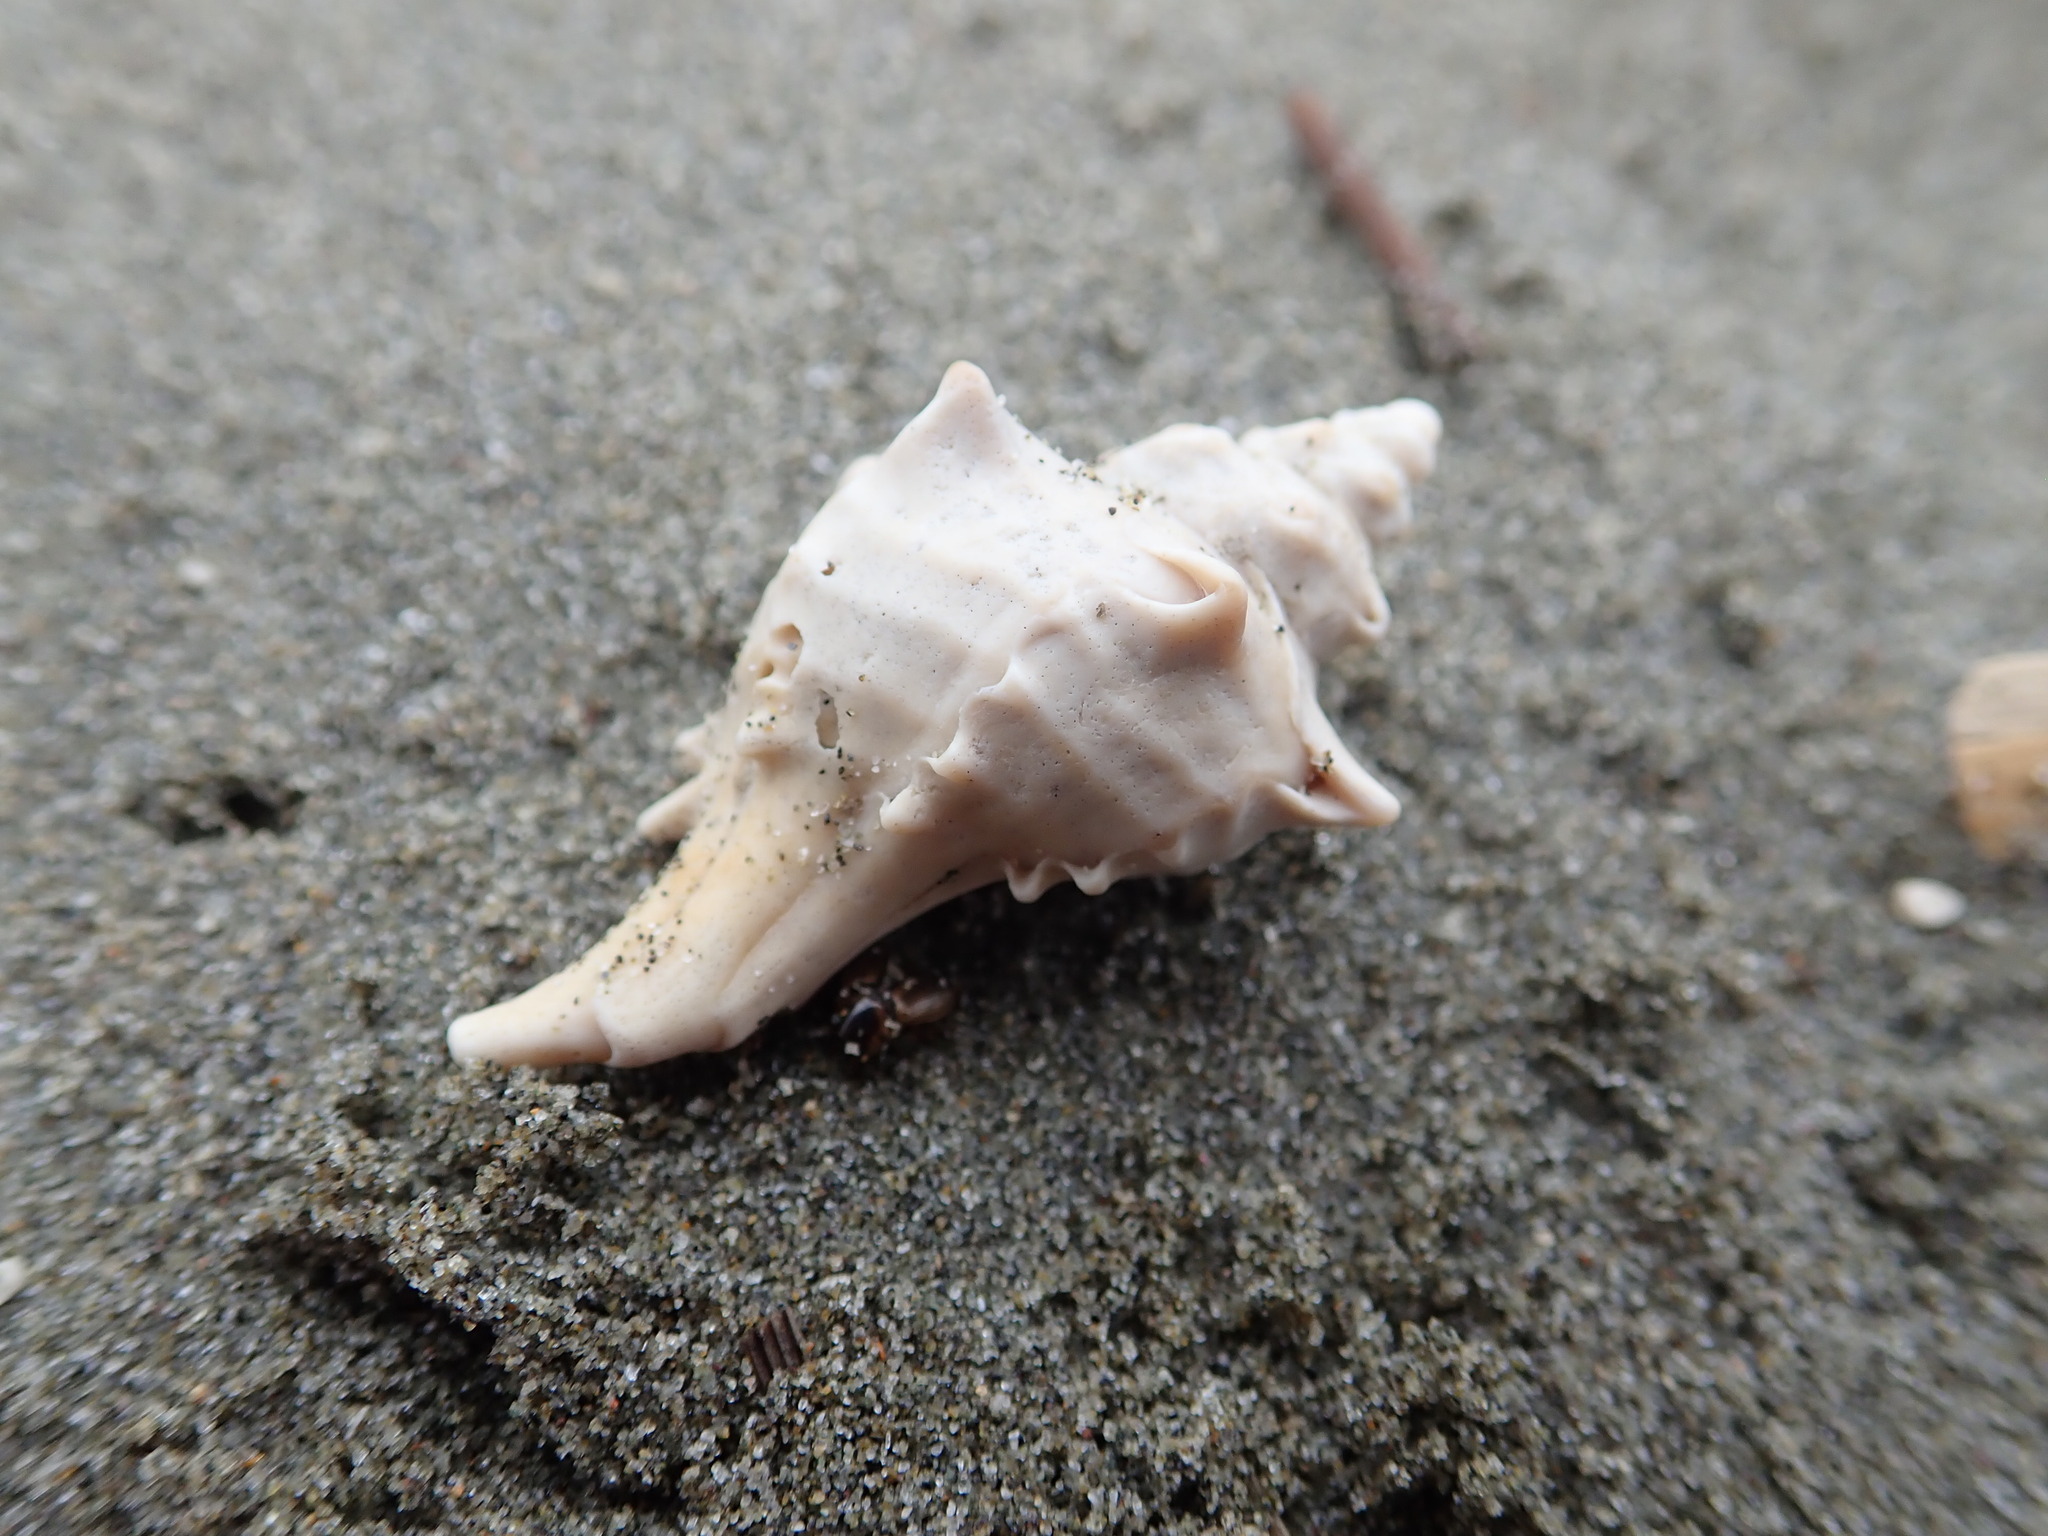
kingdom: Animalia
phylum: Mollusca
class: Gastropoda
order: Neogastropoda
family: Muricidae
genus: Poirieria
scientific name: Poirieria zelandica
